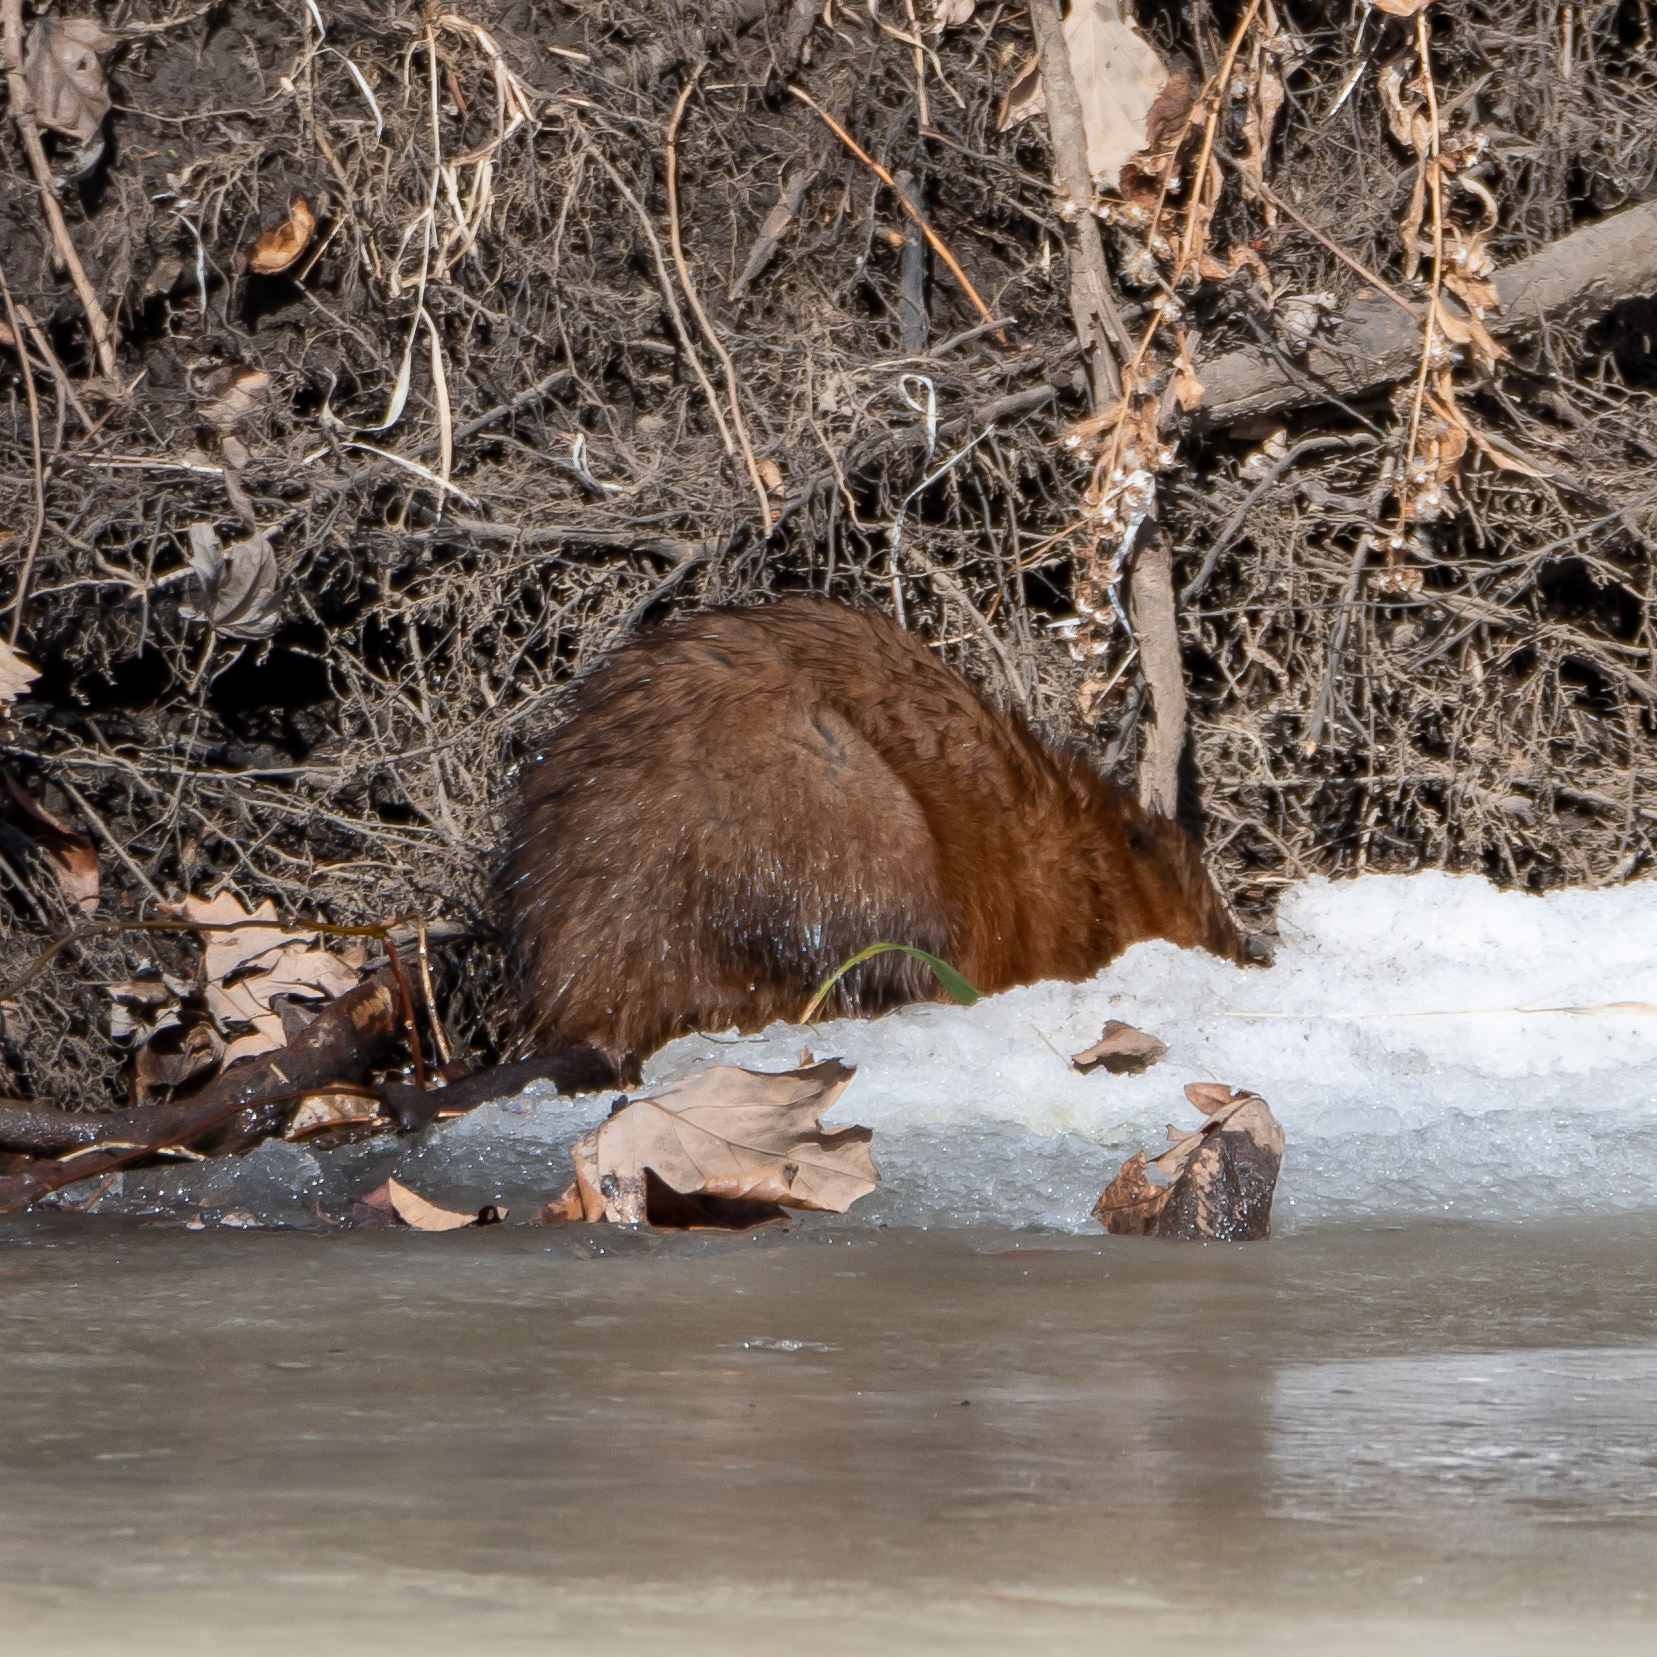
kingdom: Animalia
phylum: Chordata
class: Mammalia
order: Rodentia
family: Cricetidae
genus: Ondatra
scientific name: Ondatra zibethicus
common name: Muskrat
